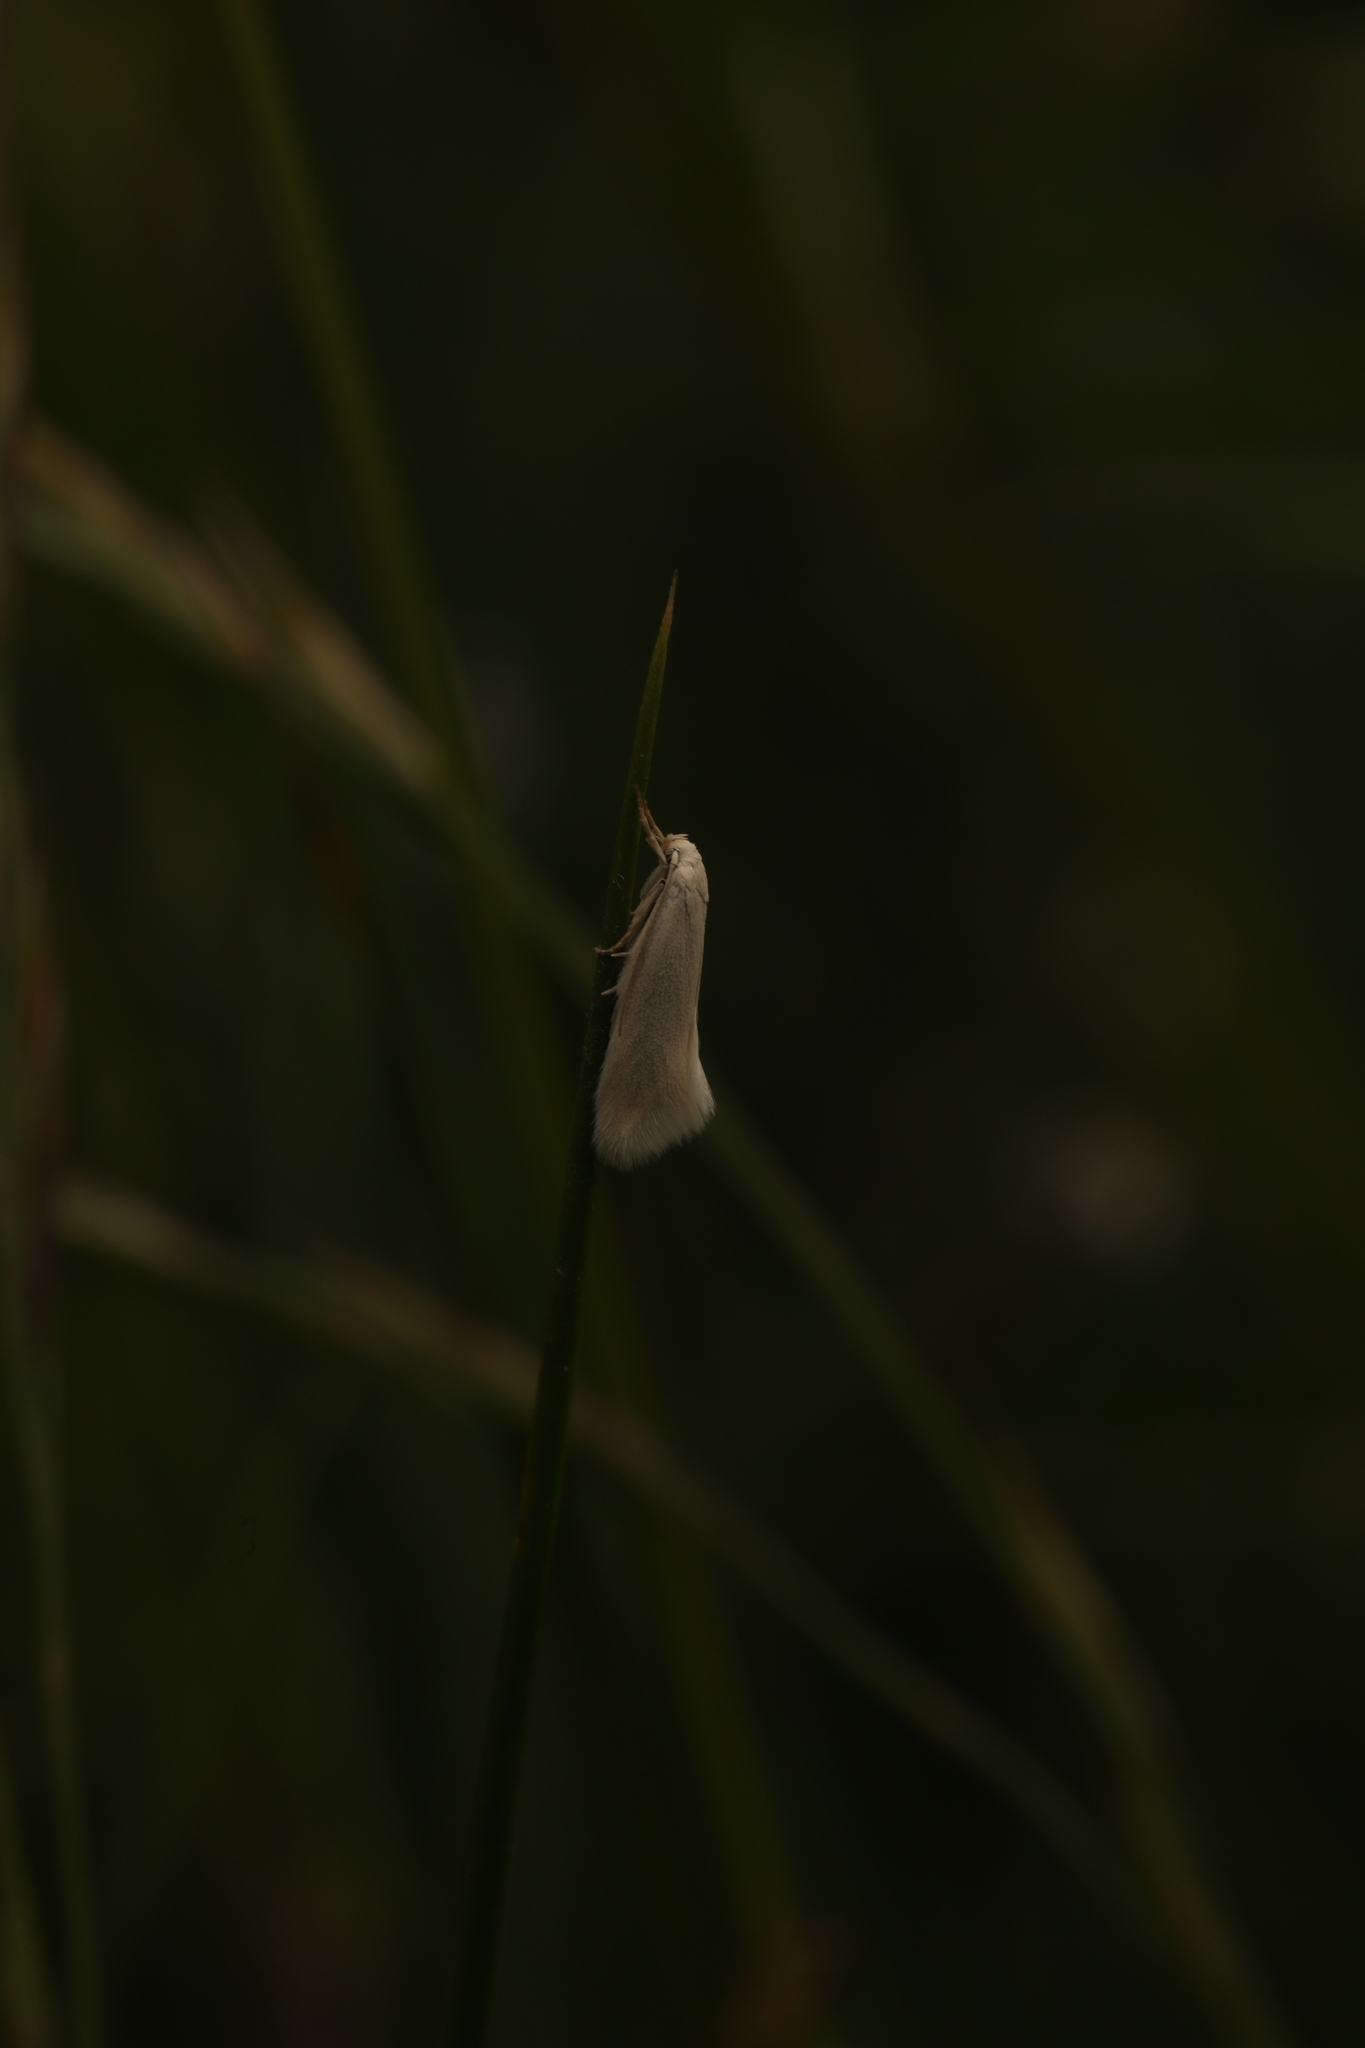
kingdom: Animalia
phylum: Arthropoda
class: Insecta
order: Lepidoptera
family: Elachistidae
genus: Elachista
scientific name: Elachista argentella
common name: Swan-feather dwarf
